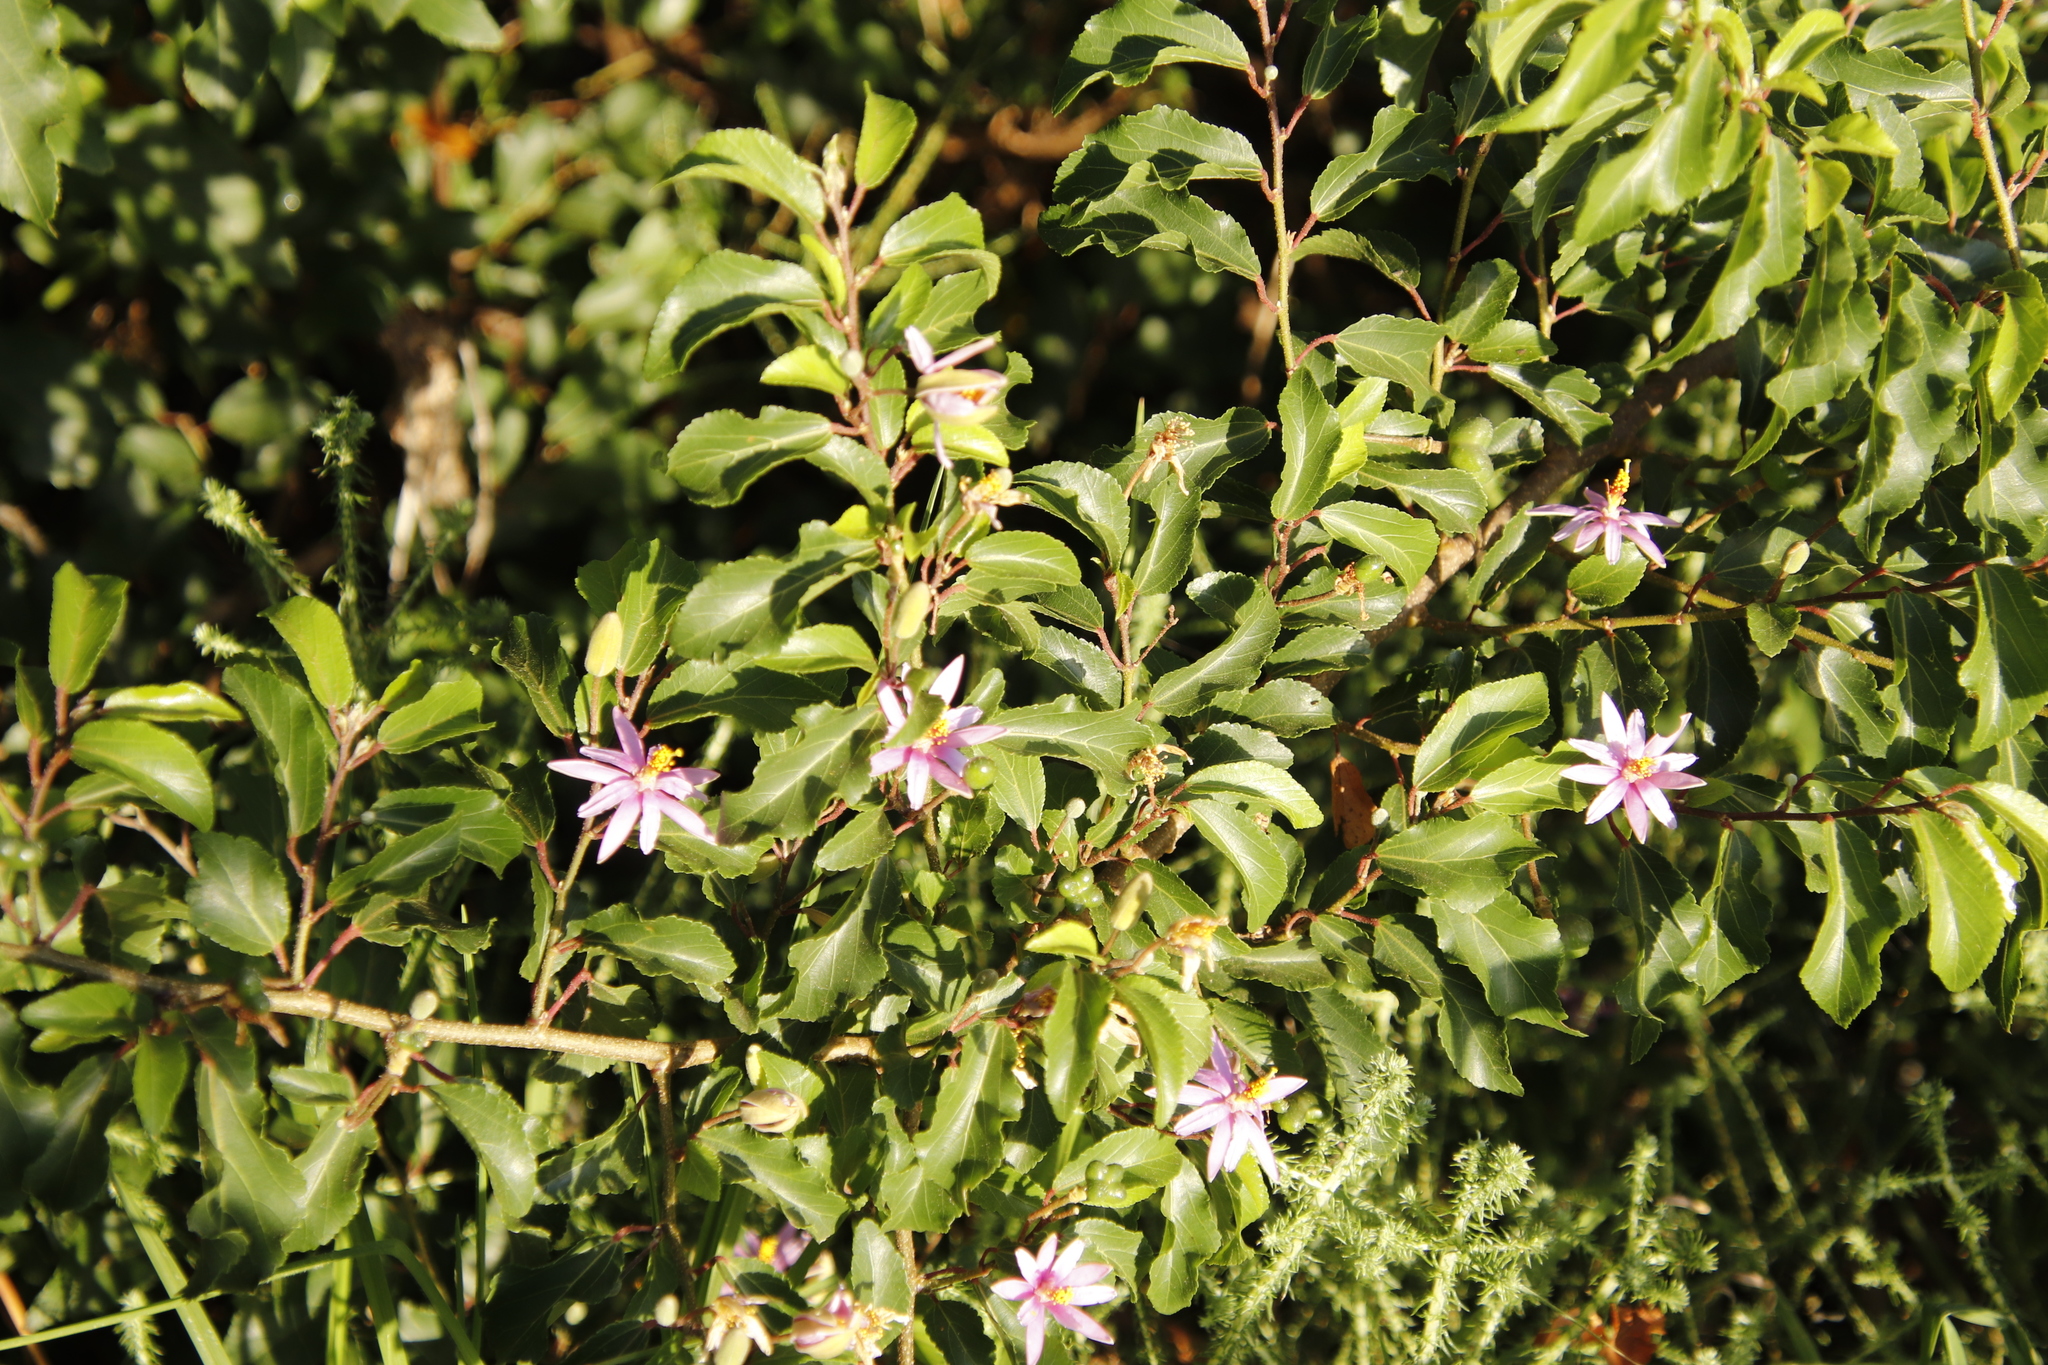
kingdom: Plantae
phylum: Tracheophyta
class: Magnoliopsida
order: Malvales
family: Malvaceae
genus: Grewia
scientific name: Grewia occidentalis
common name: Crossberry
